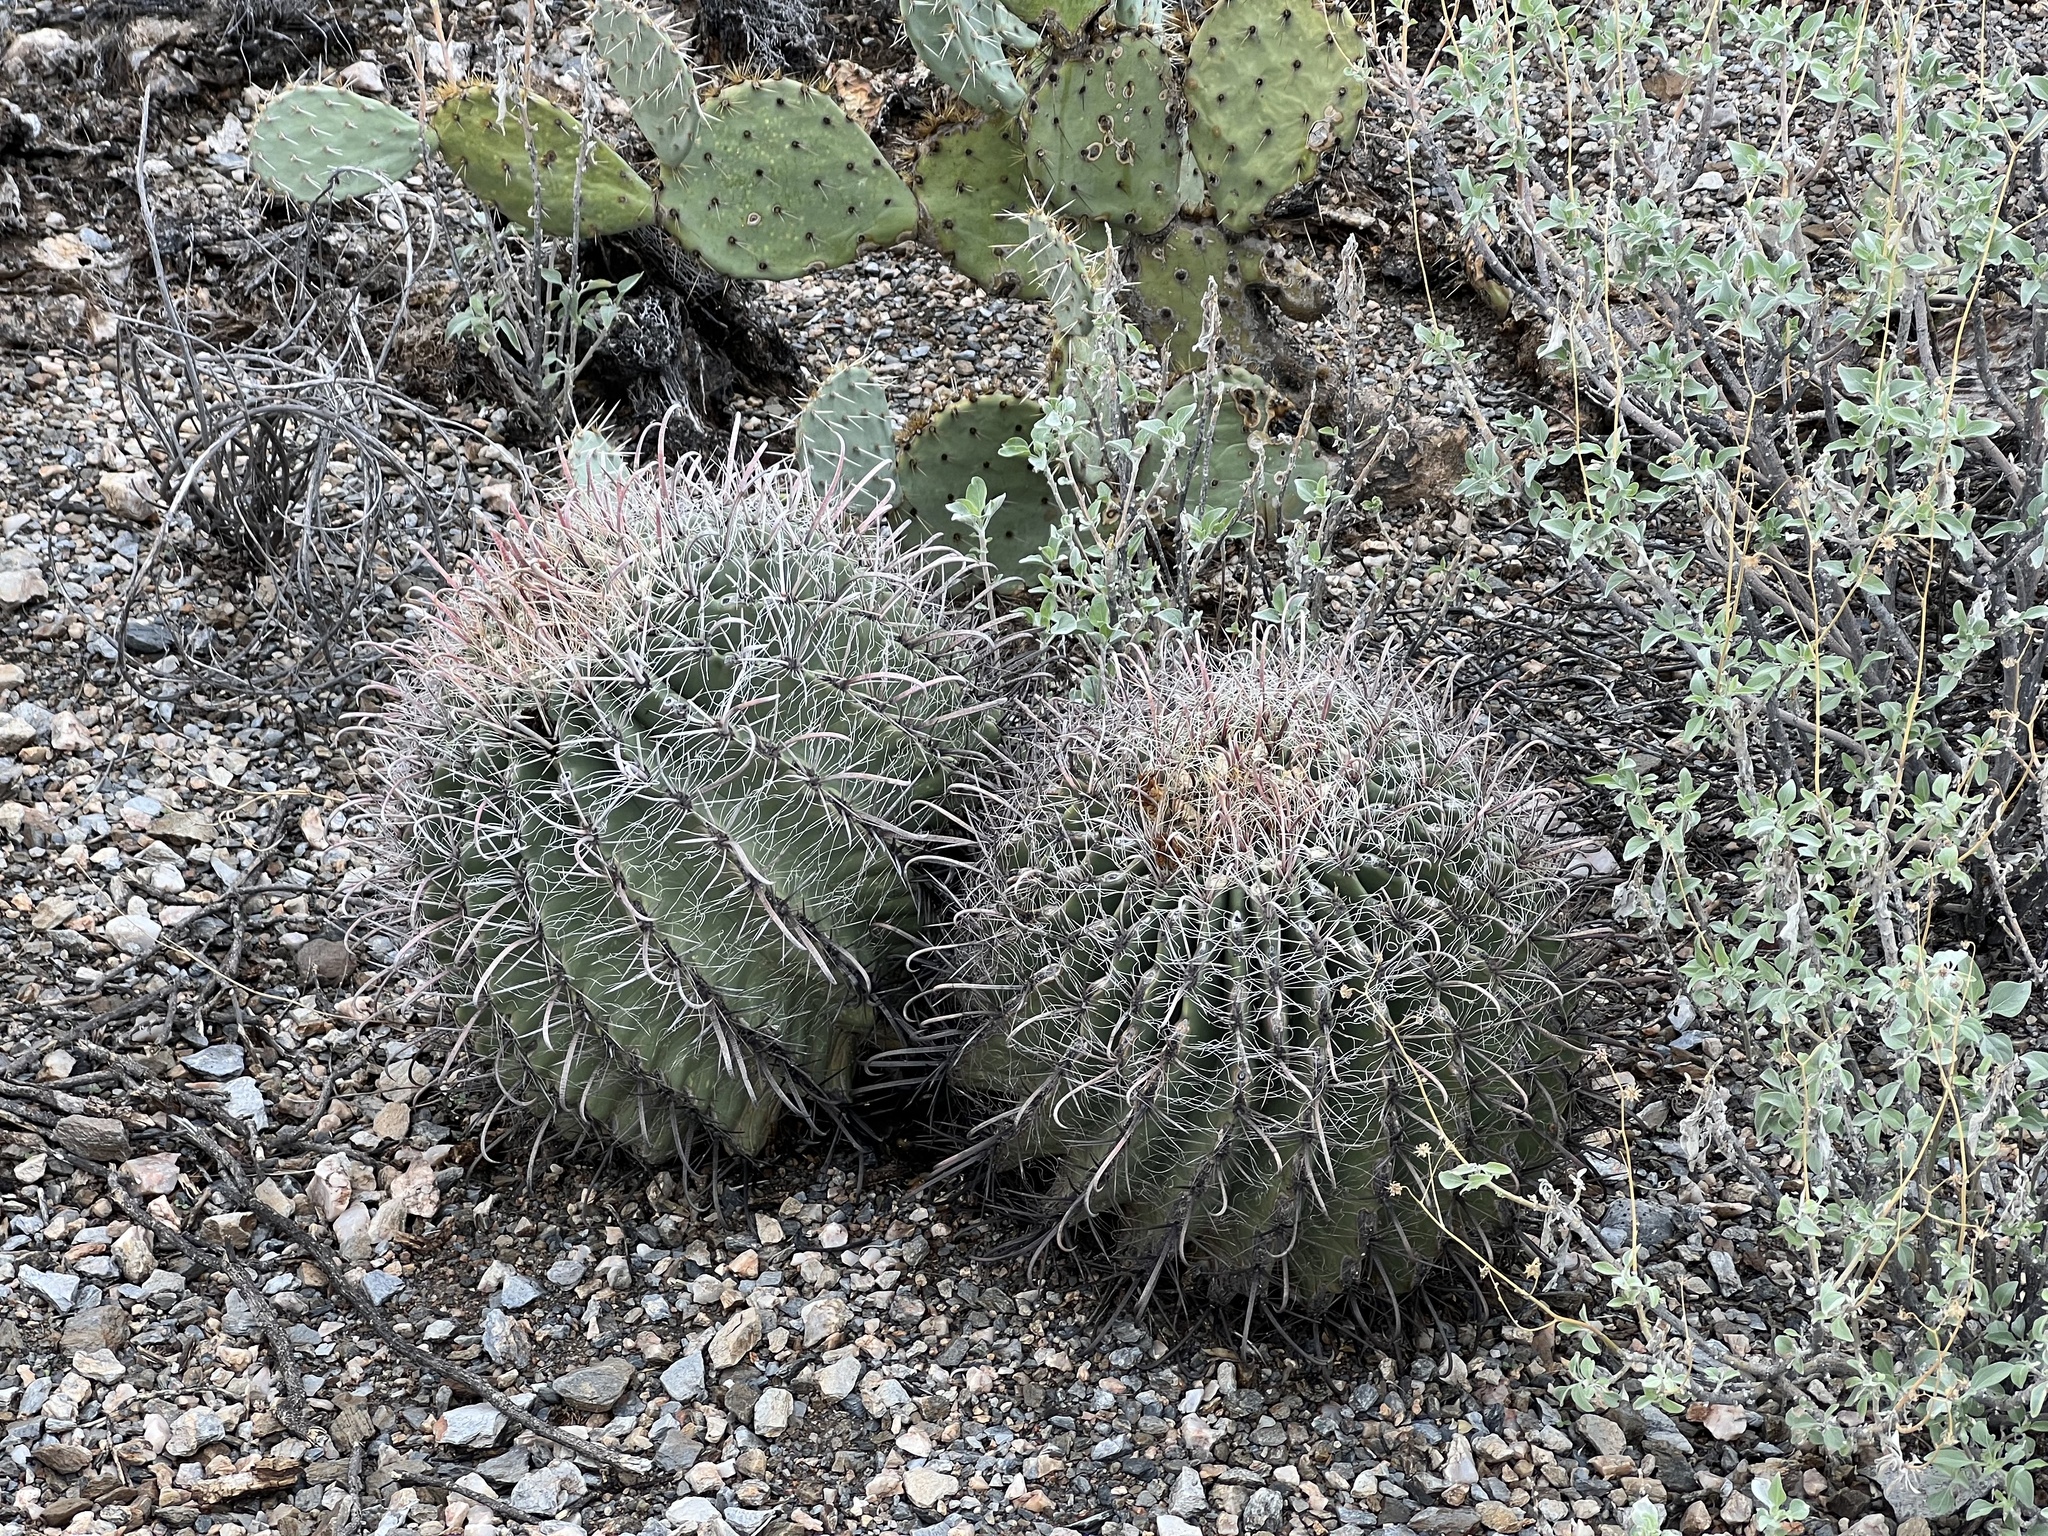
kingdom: Plantae
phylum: Tracheophyta
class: Magnoliopsida
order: Caryophyllales
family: Cactaceae
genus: Ferocactus
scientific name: Ferocactus wislizeni
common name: Candy barrel cactus
